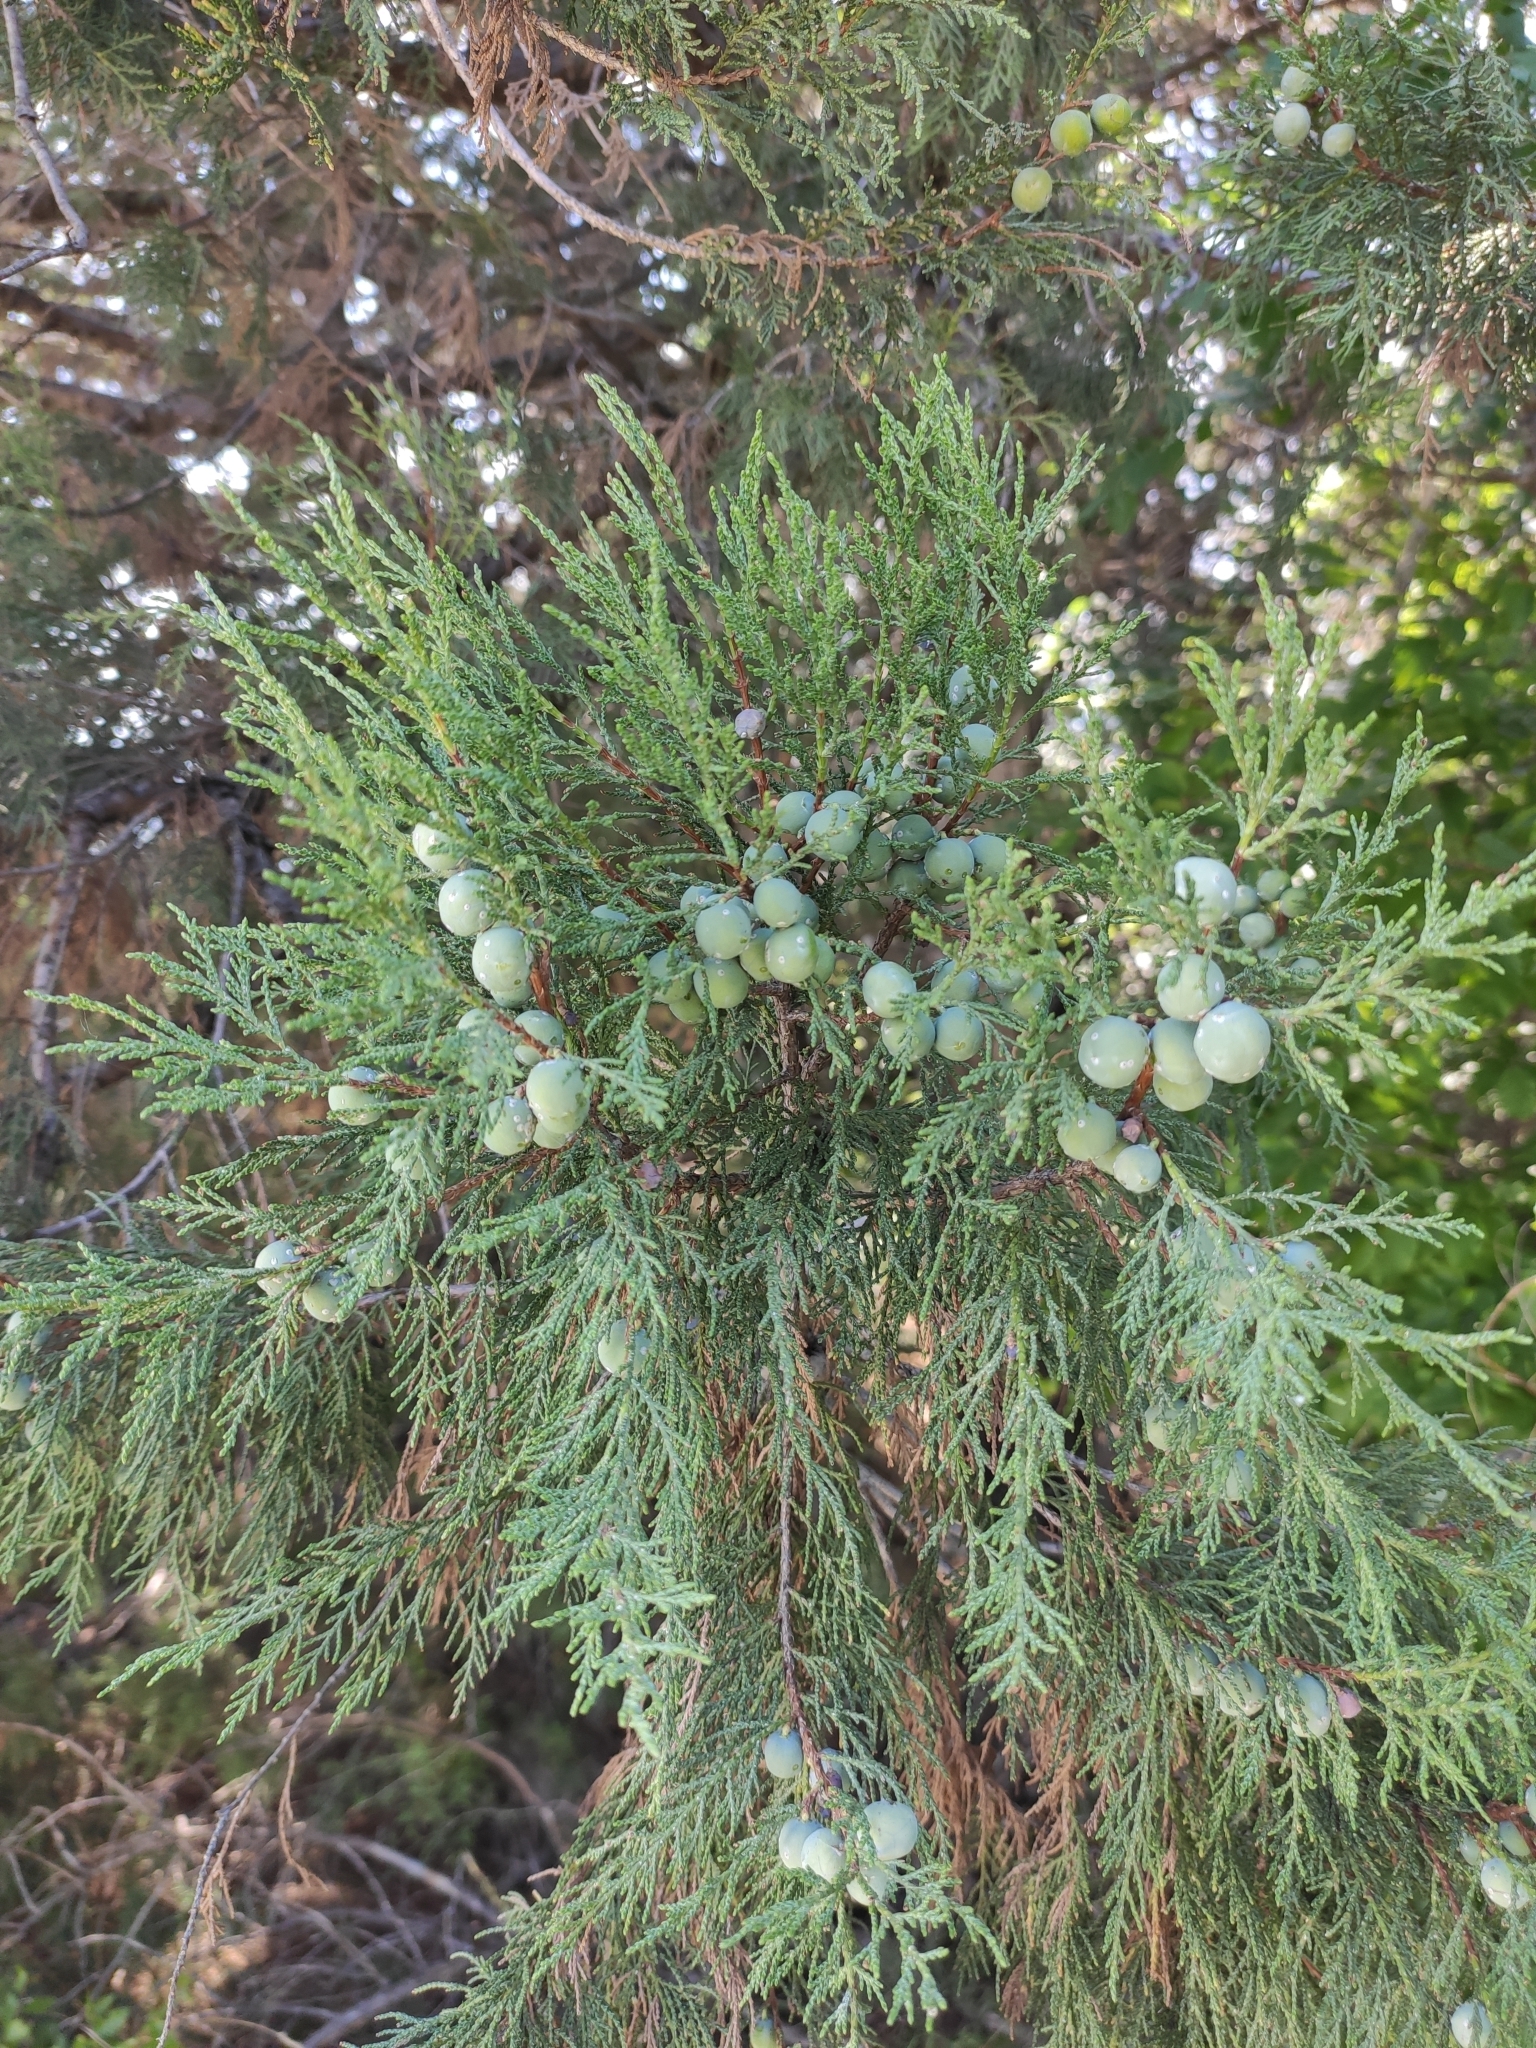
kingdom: Plantae
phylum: Tracheophyta
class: Pinopsida
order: Pinales
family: Cupressaceae
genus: Juniperus
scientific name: Juniperus excelsa
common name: Crimean juniper
